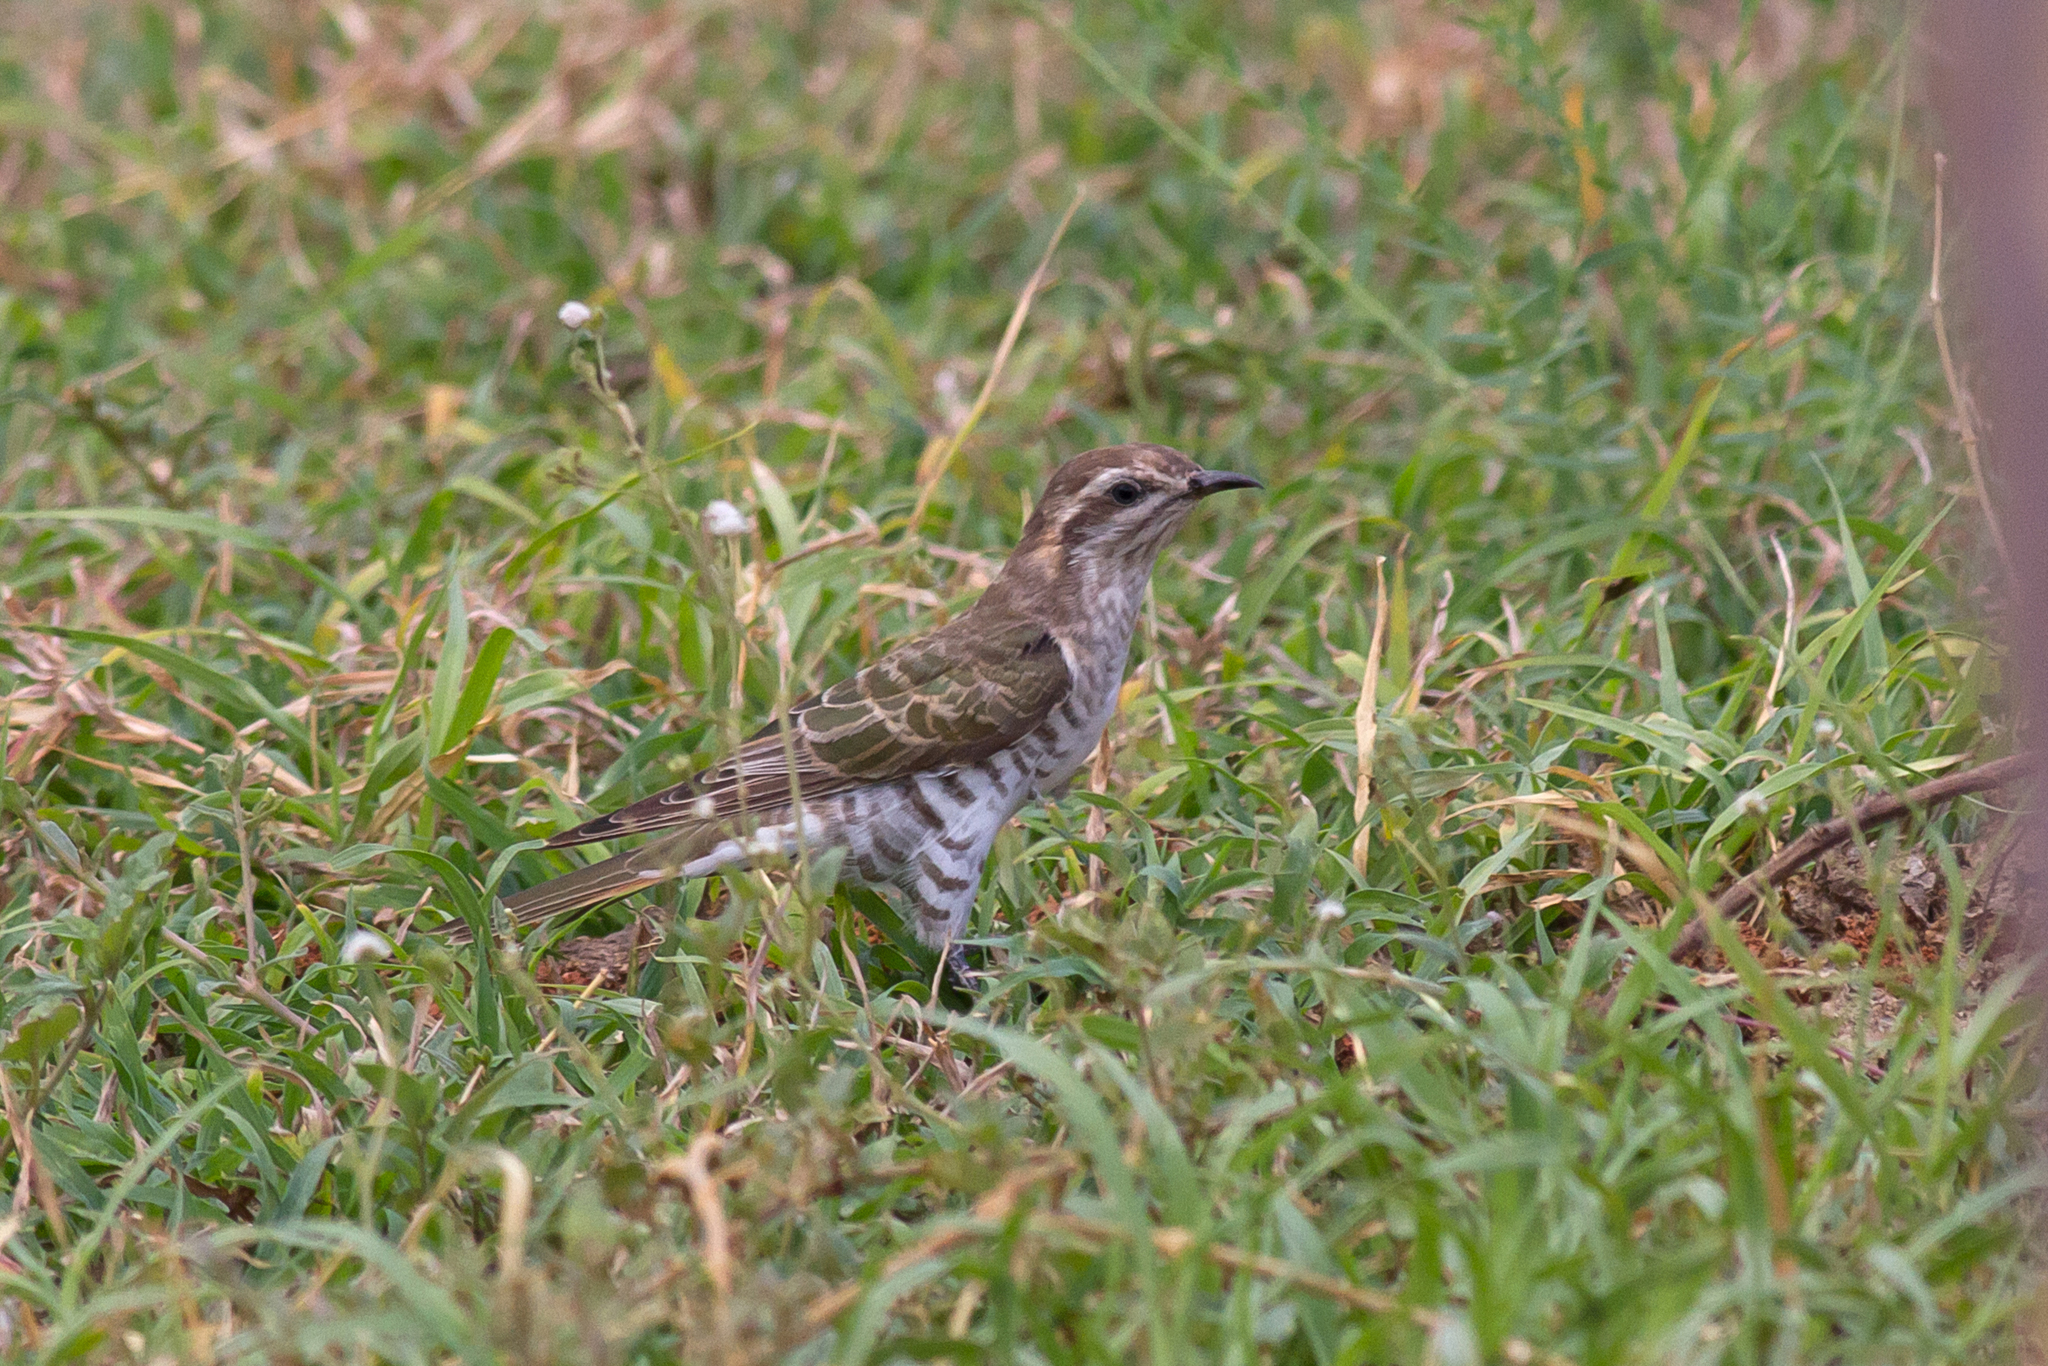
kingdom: Animalia
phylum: Chordata
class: Aves
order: Cuculiformes
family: Cuculidae
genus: Chrysococcyx
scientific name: Chrysococcyx basalis
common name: Horsfield's bronze cuckoo
